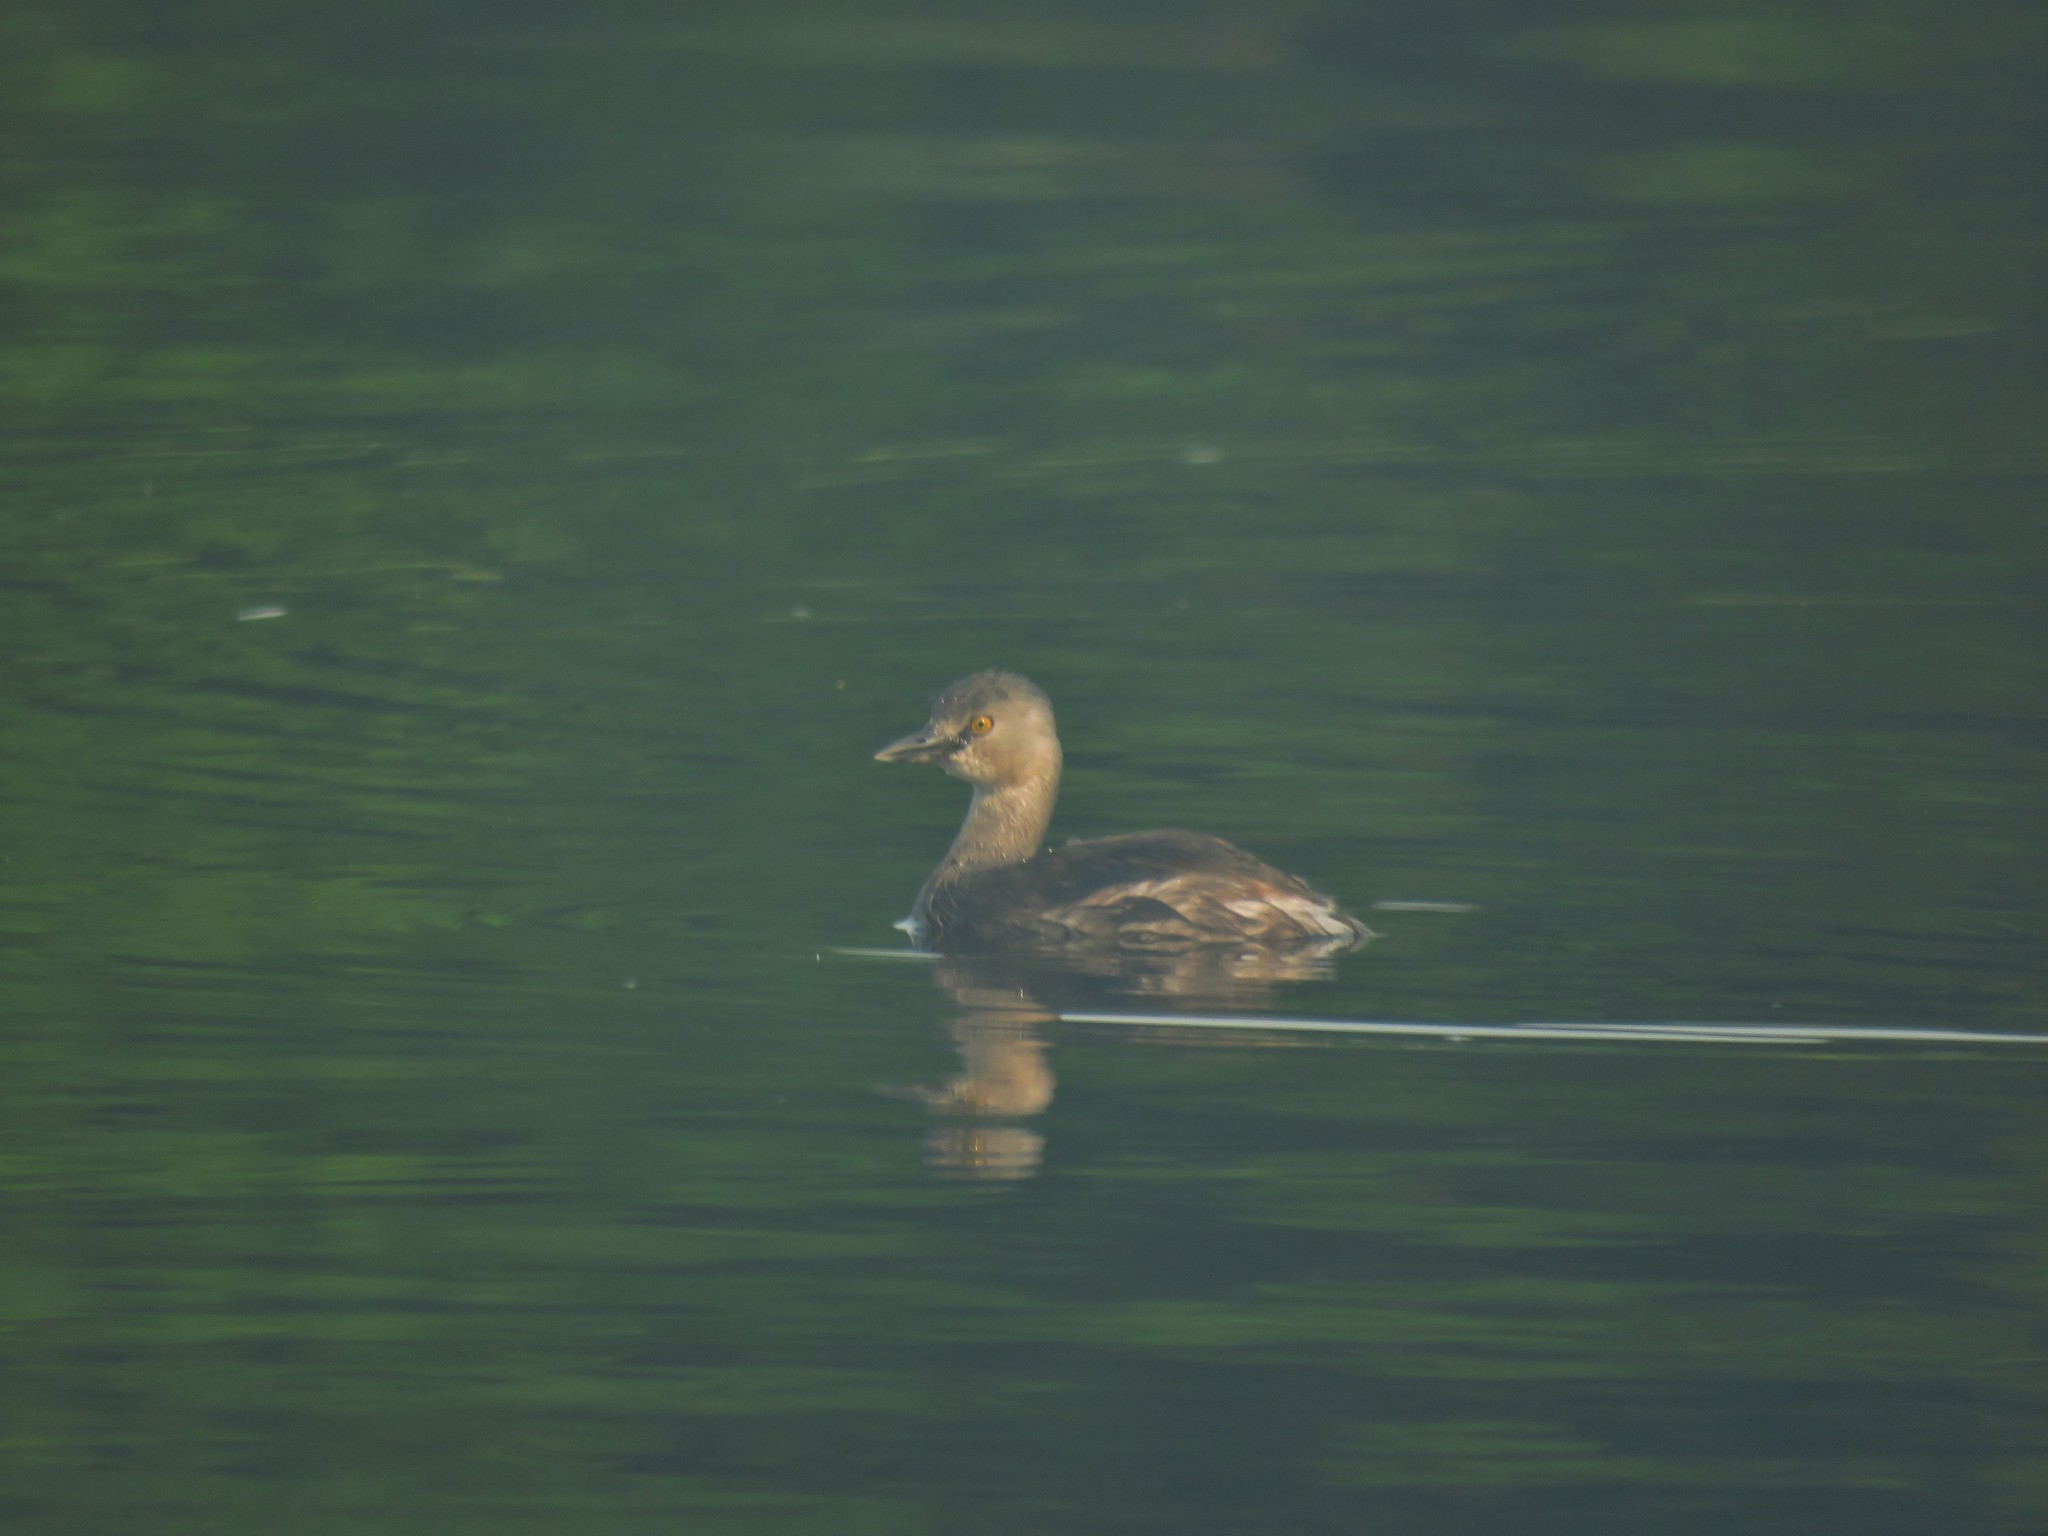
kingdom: Animalia
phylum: Chordata
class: Aves
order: Podicipediformes
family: Podicipedidae
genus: Tachybaptus
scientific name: Tachybaptus dominicus
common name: Least grebe
